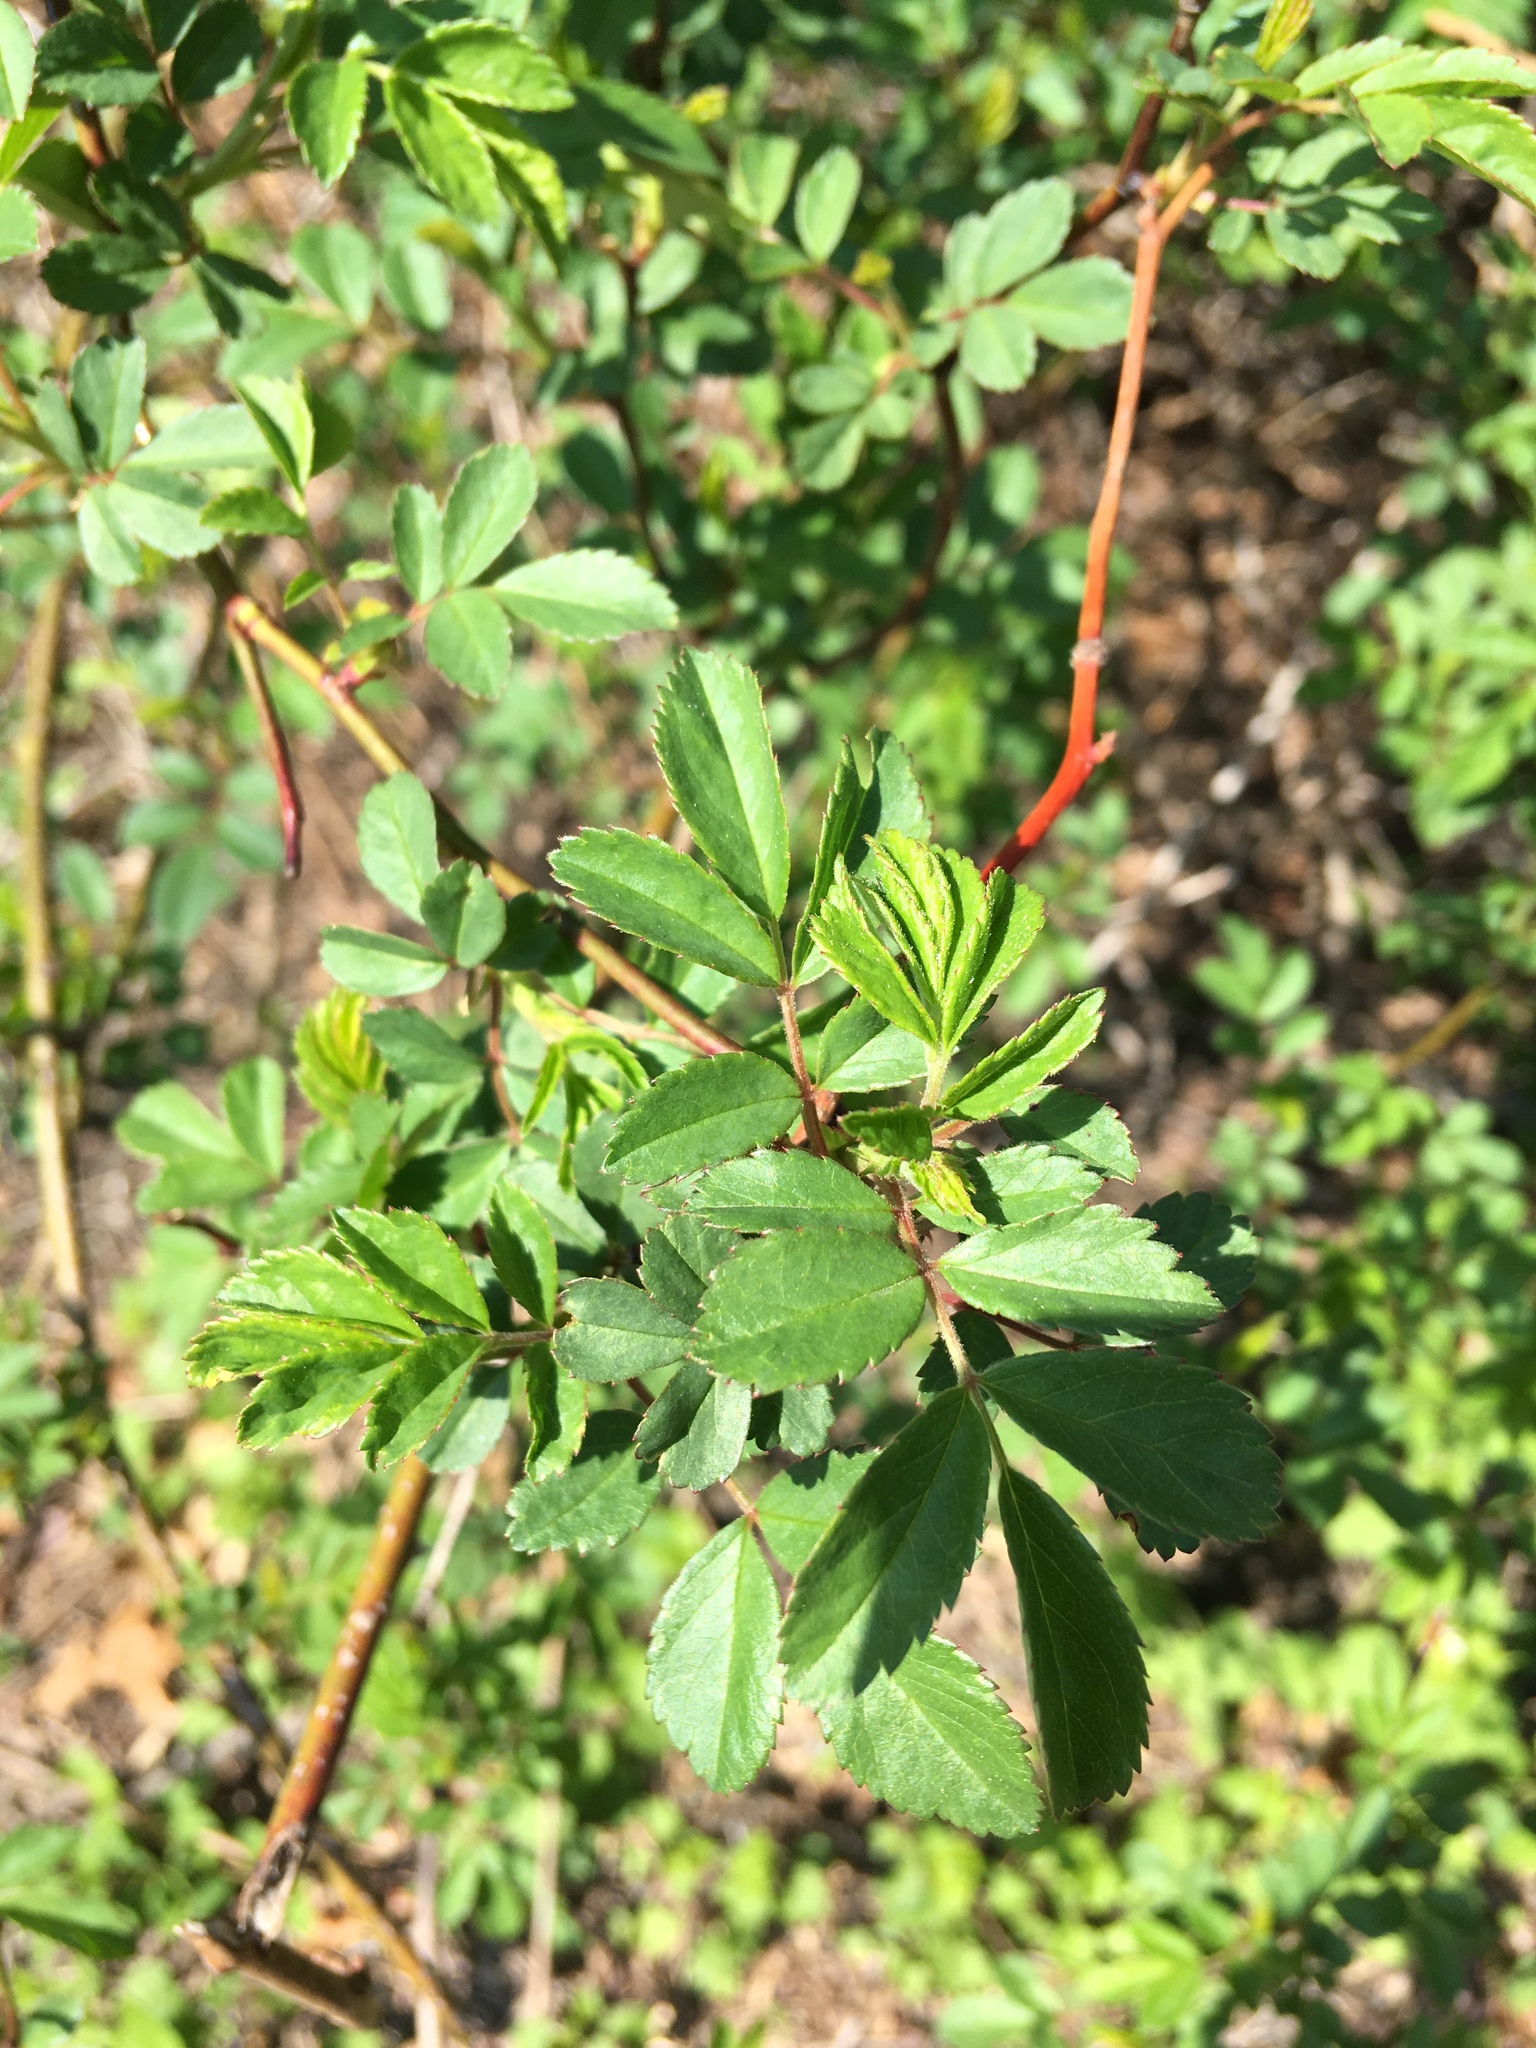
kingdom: Plantae
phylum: Tracheophyta
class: Magnoliopsida
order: Rosales
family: Rosaceae
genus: Rosa
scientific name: Rosa multiflora
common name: Multiflora rose
